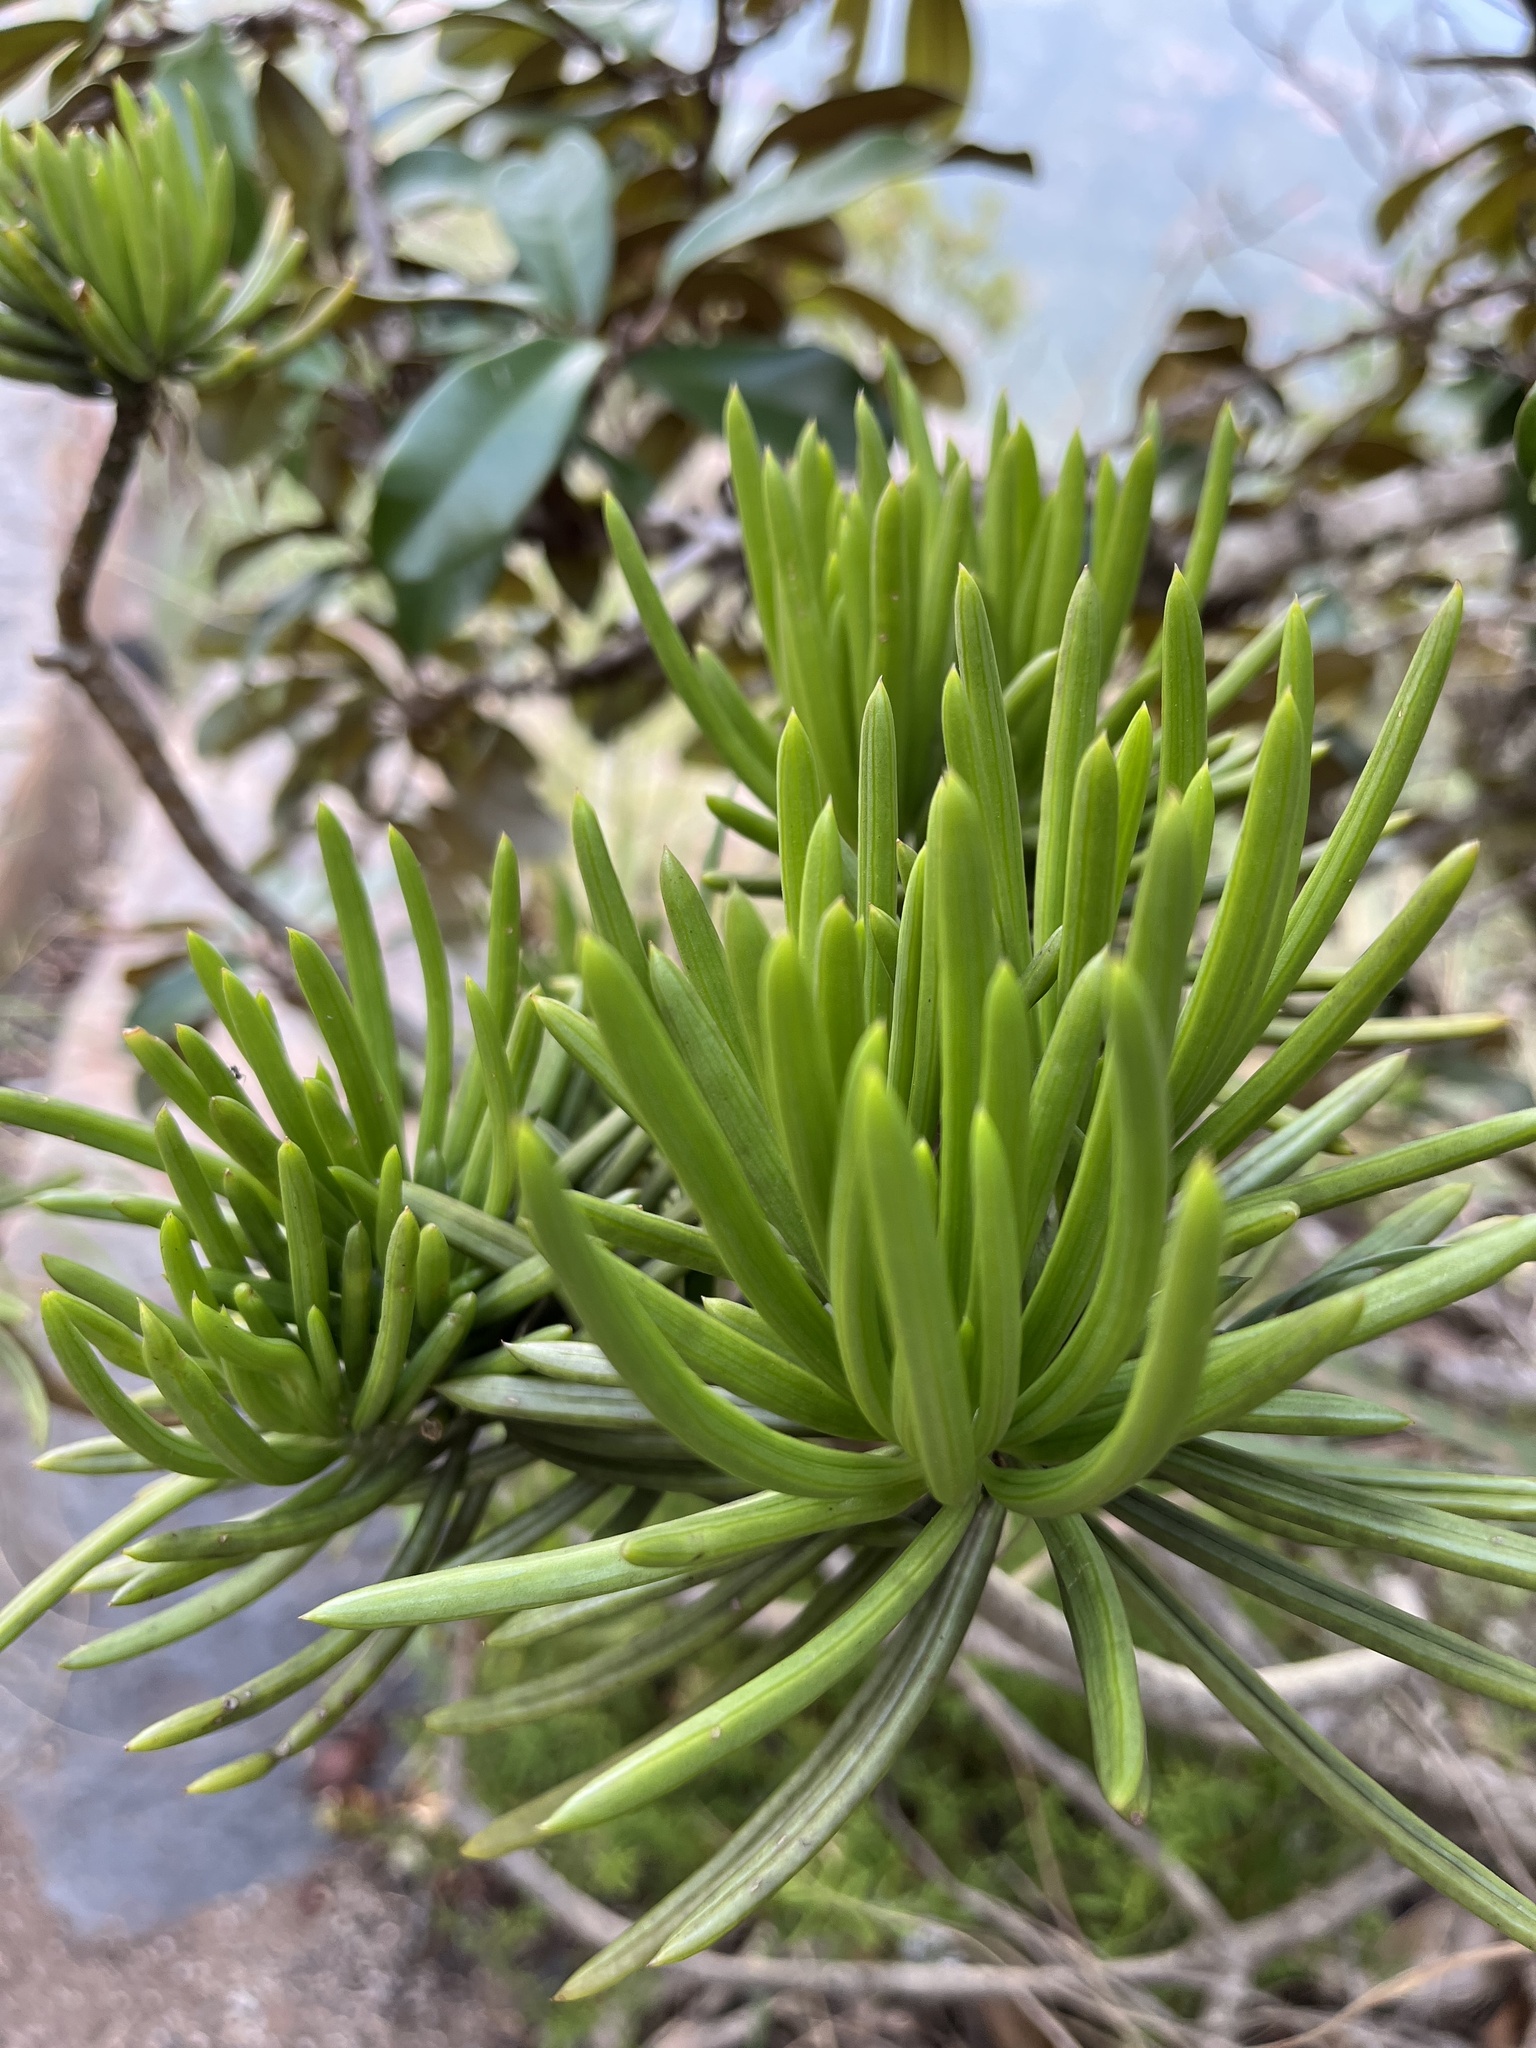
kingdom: Plantae
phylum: Tracheophyta
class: Magnoliopsida
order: Asterales
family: Asteraceae
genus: Kleinia
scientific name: Kleinia barbertonica
